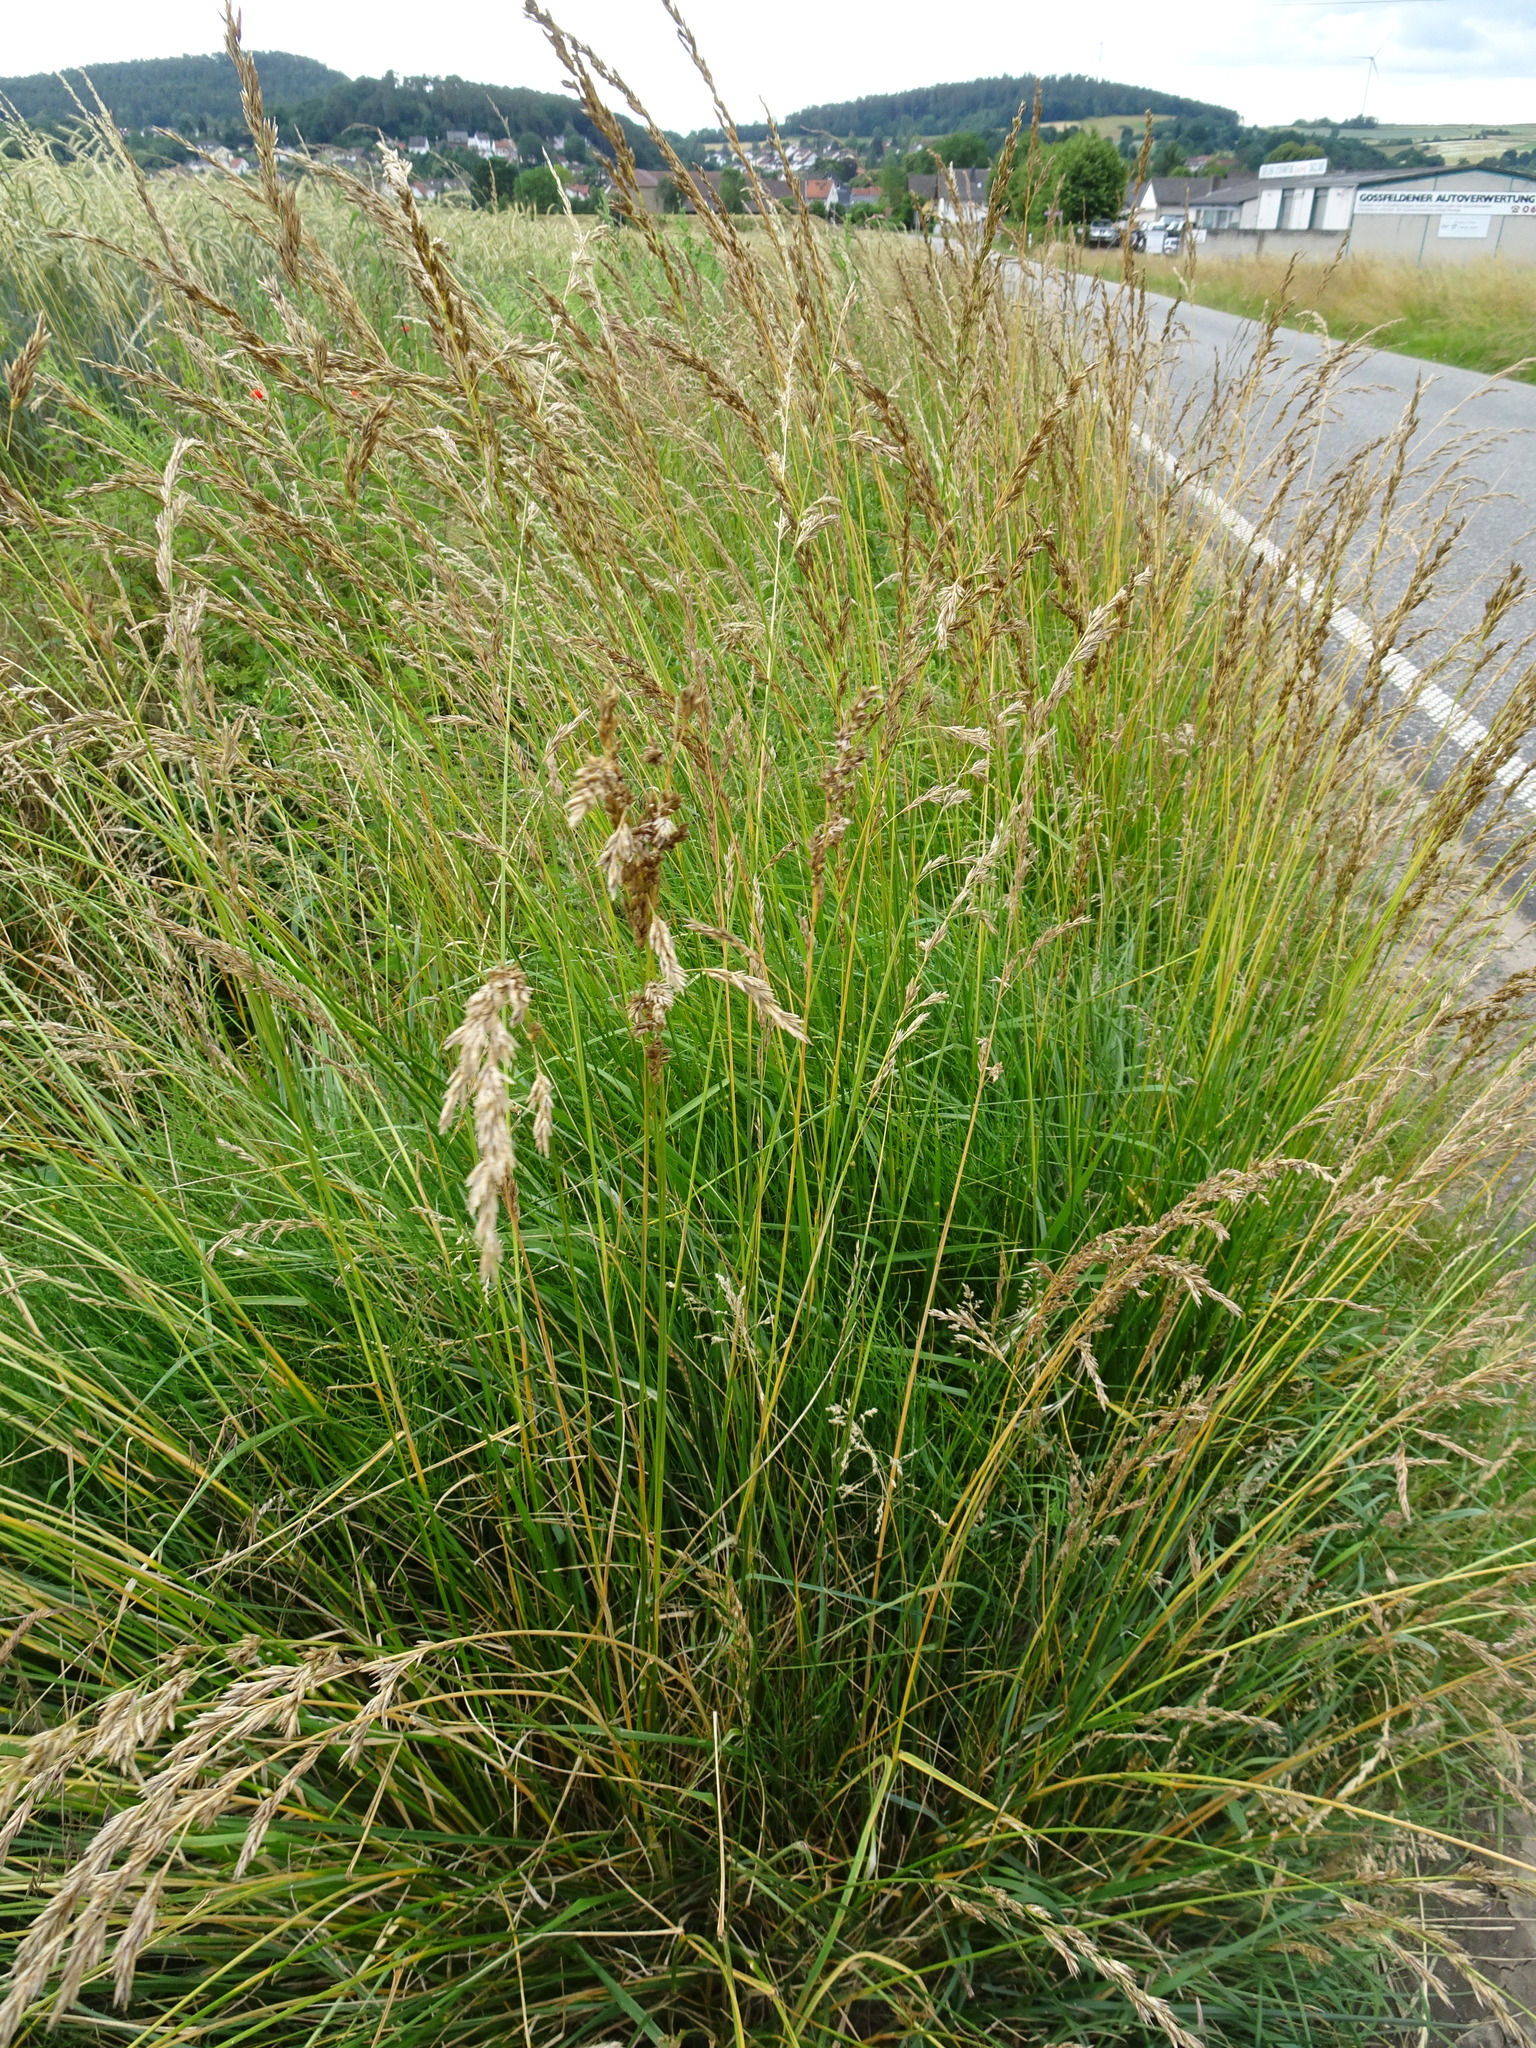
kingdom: Plantae
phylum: Tracheophyta
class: Liliopsida
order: Poales
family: Poaceae
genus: Lolium
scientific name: Lolium arundinaceum
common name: Reed fescue
